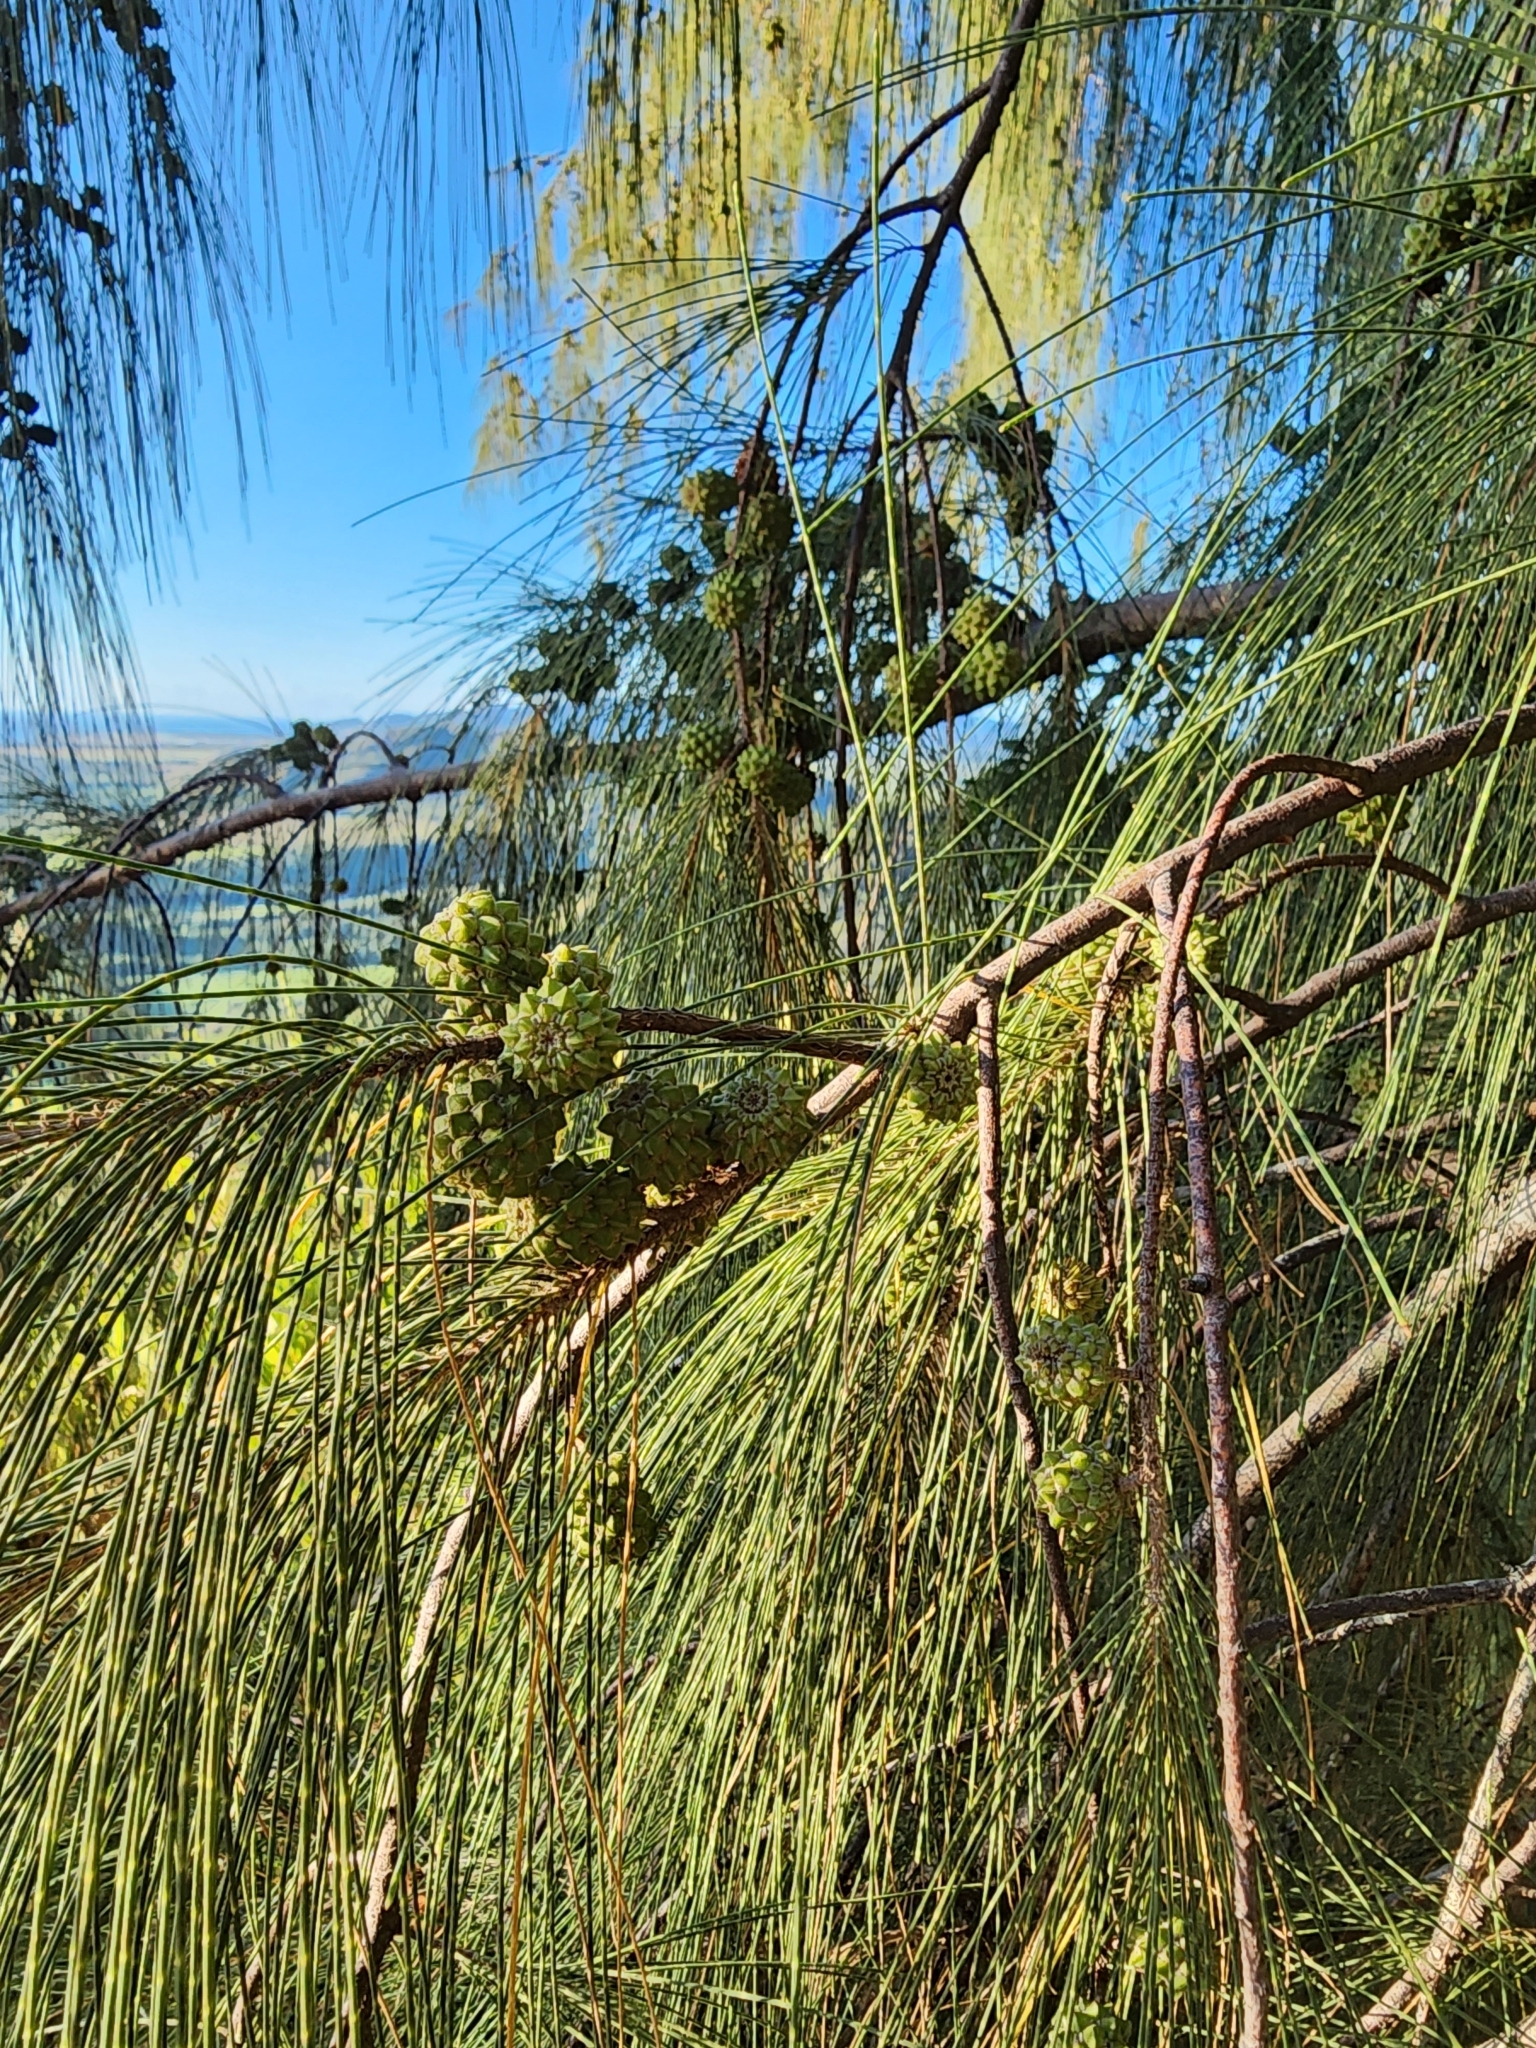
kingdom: Plantae
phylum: Tracheophyta
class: Magnoliopsida
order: Fagales
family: Casuarinaceae
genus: Casuarina
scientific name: Casuarina equisetifolia
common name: Beach sheoak
